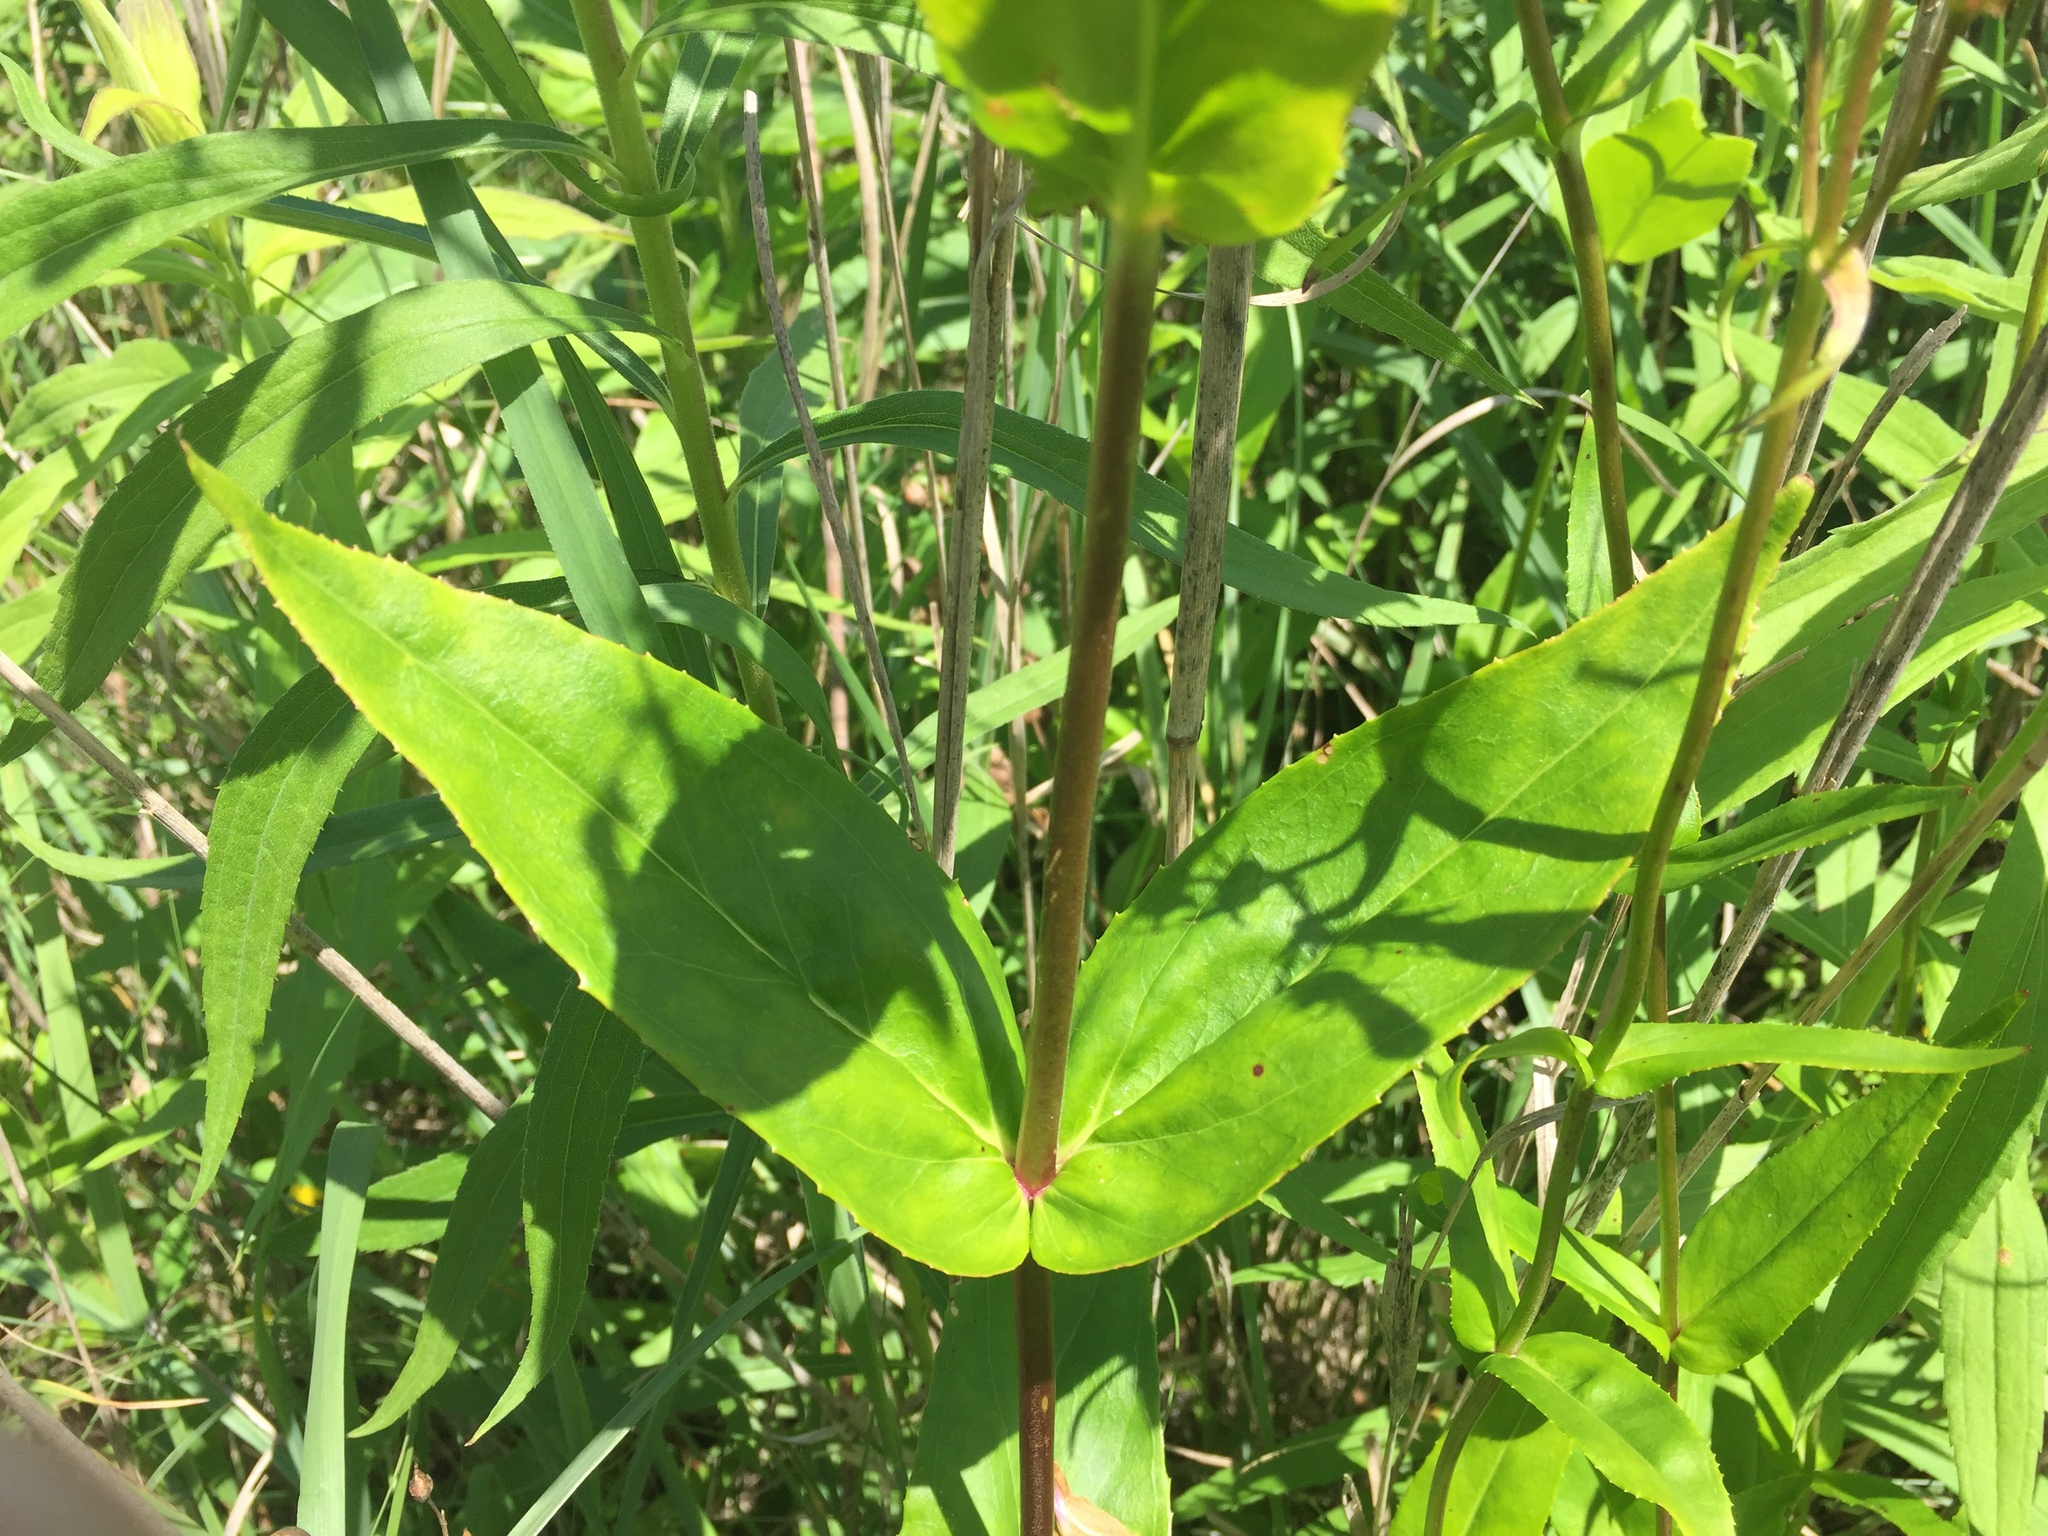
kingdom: Plantae
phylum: Tracheophyta
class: Magnoliopsida
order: Lamiales
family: Plantaginaceae
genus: Penstemon
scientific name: Penstemon digitalis
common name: Foxglove beardtongue
